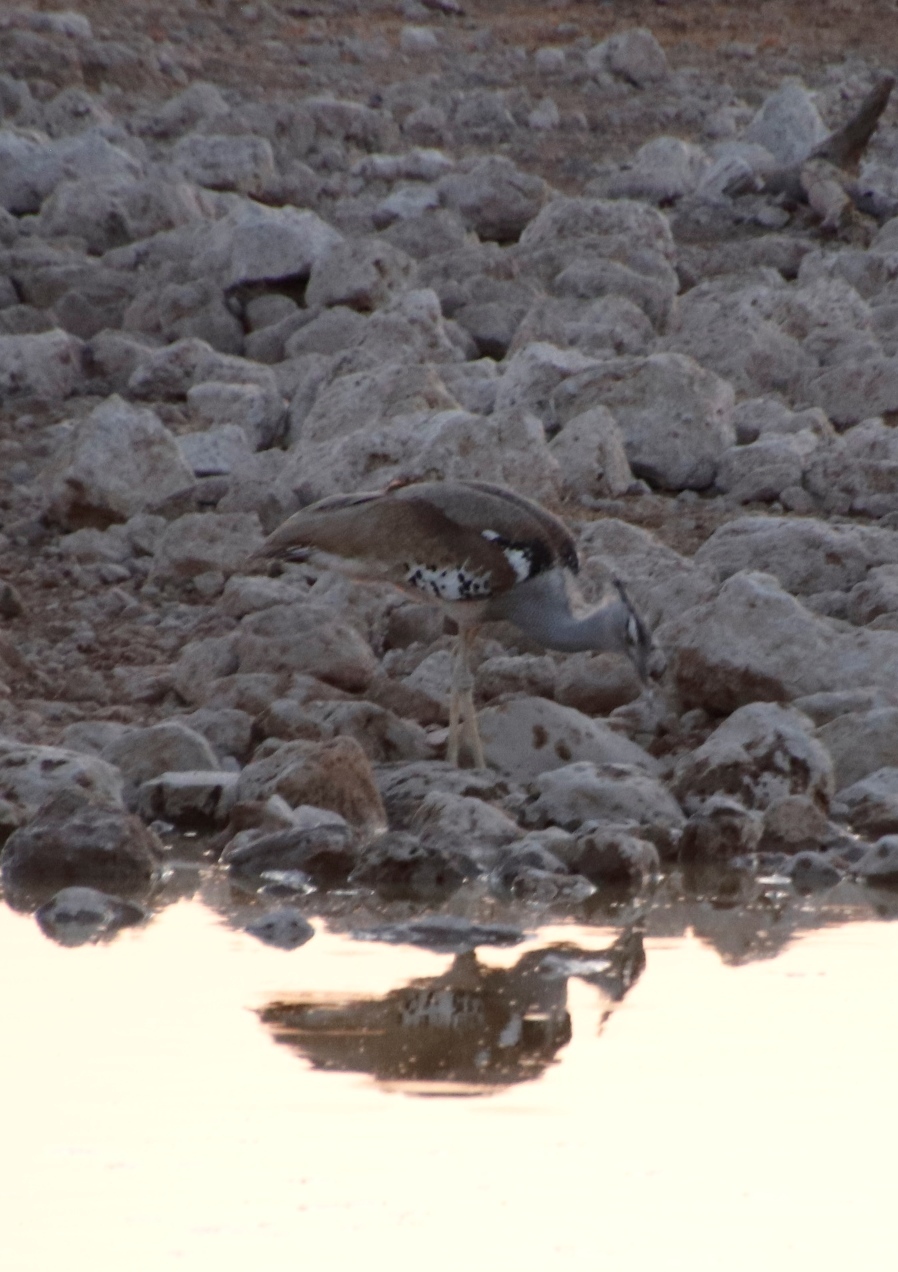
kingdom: Animalia
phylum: Chordata
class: Aves
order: Otidiformes
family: Otididae
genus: Ardeotis
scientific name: Ardeotis kori
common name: Kori bustard
